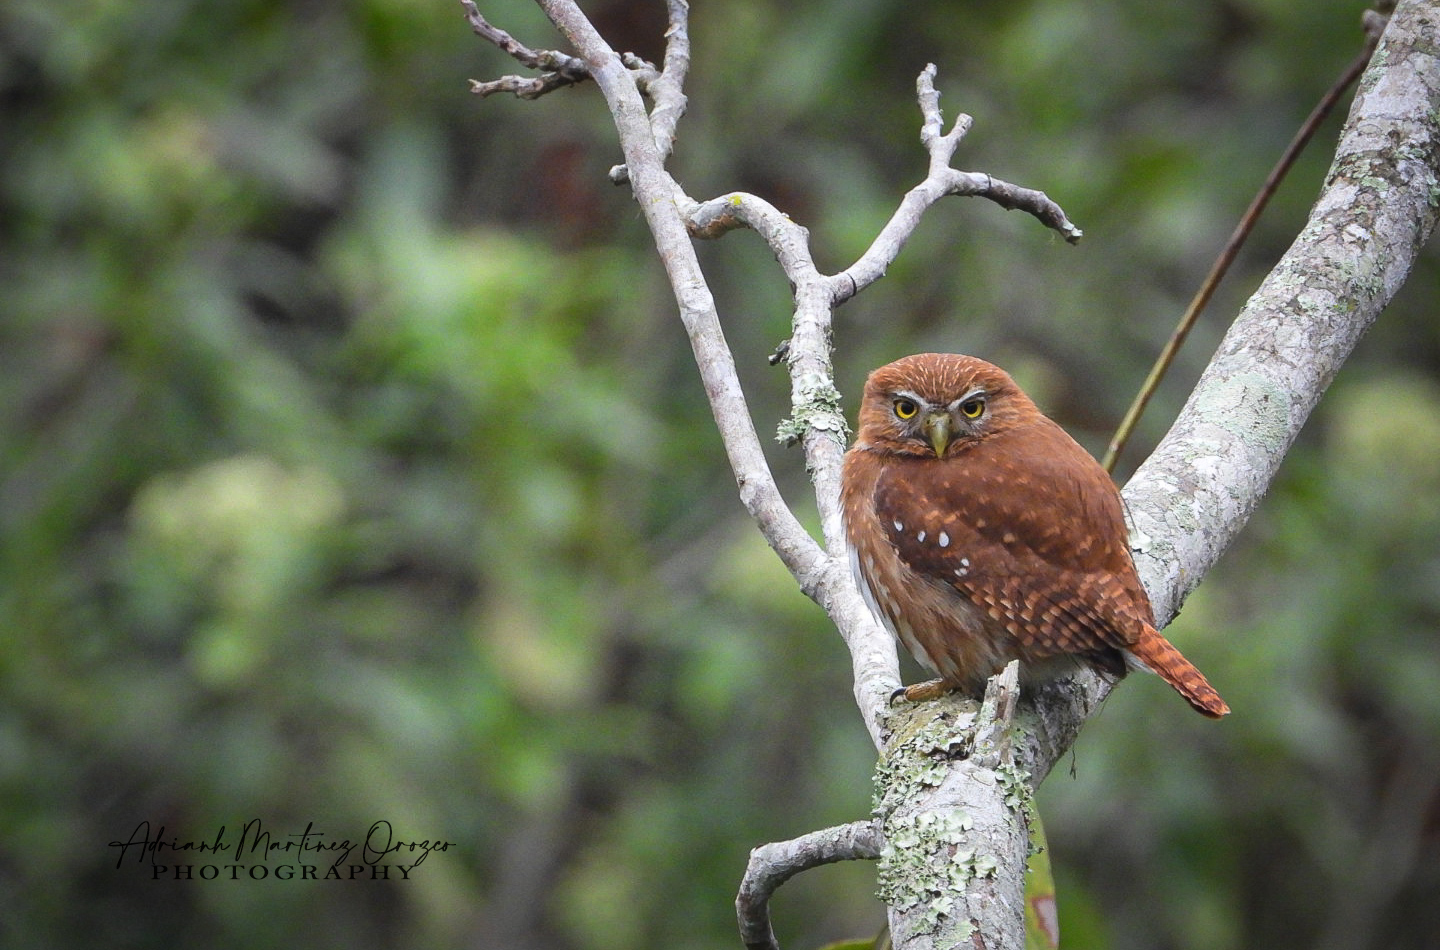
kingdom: Animalia
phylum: Chordata
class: Aves
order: Strigiformes
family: Strigidae
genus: Glaucidium
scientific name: Glaucidium brasilianum
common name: Ferruginous pygmy-owl
